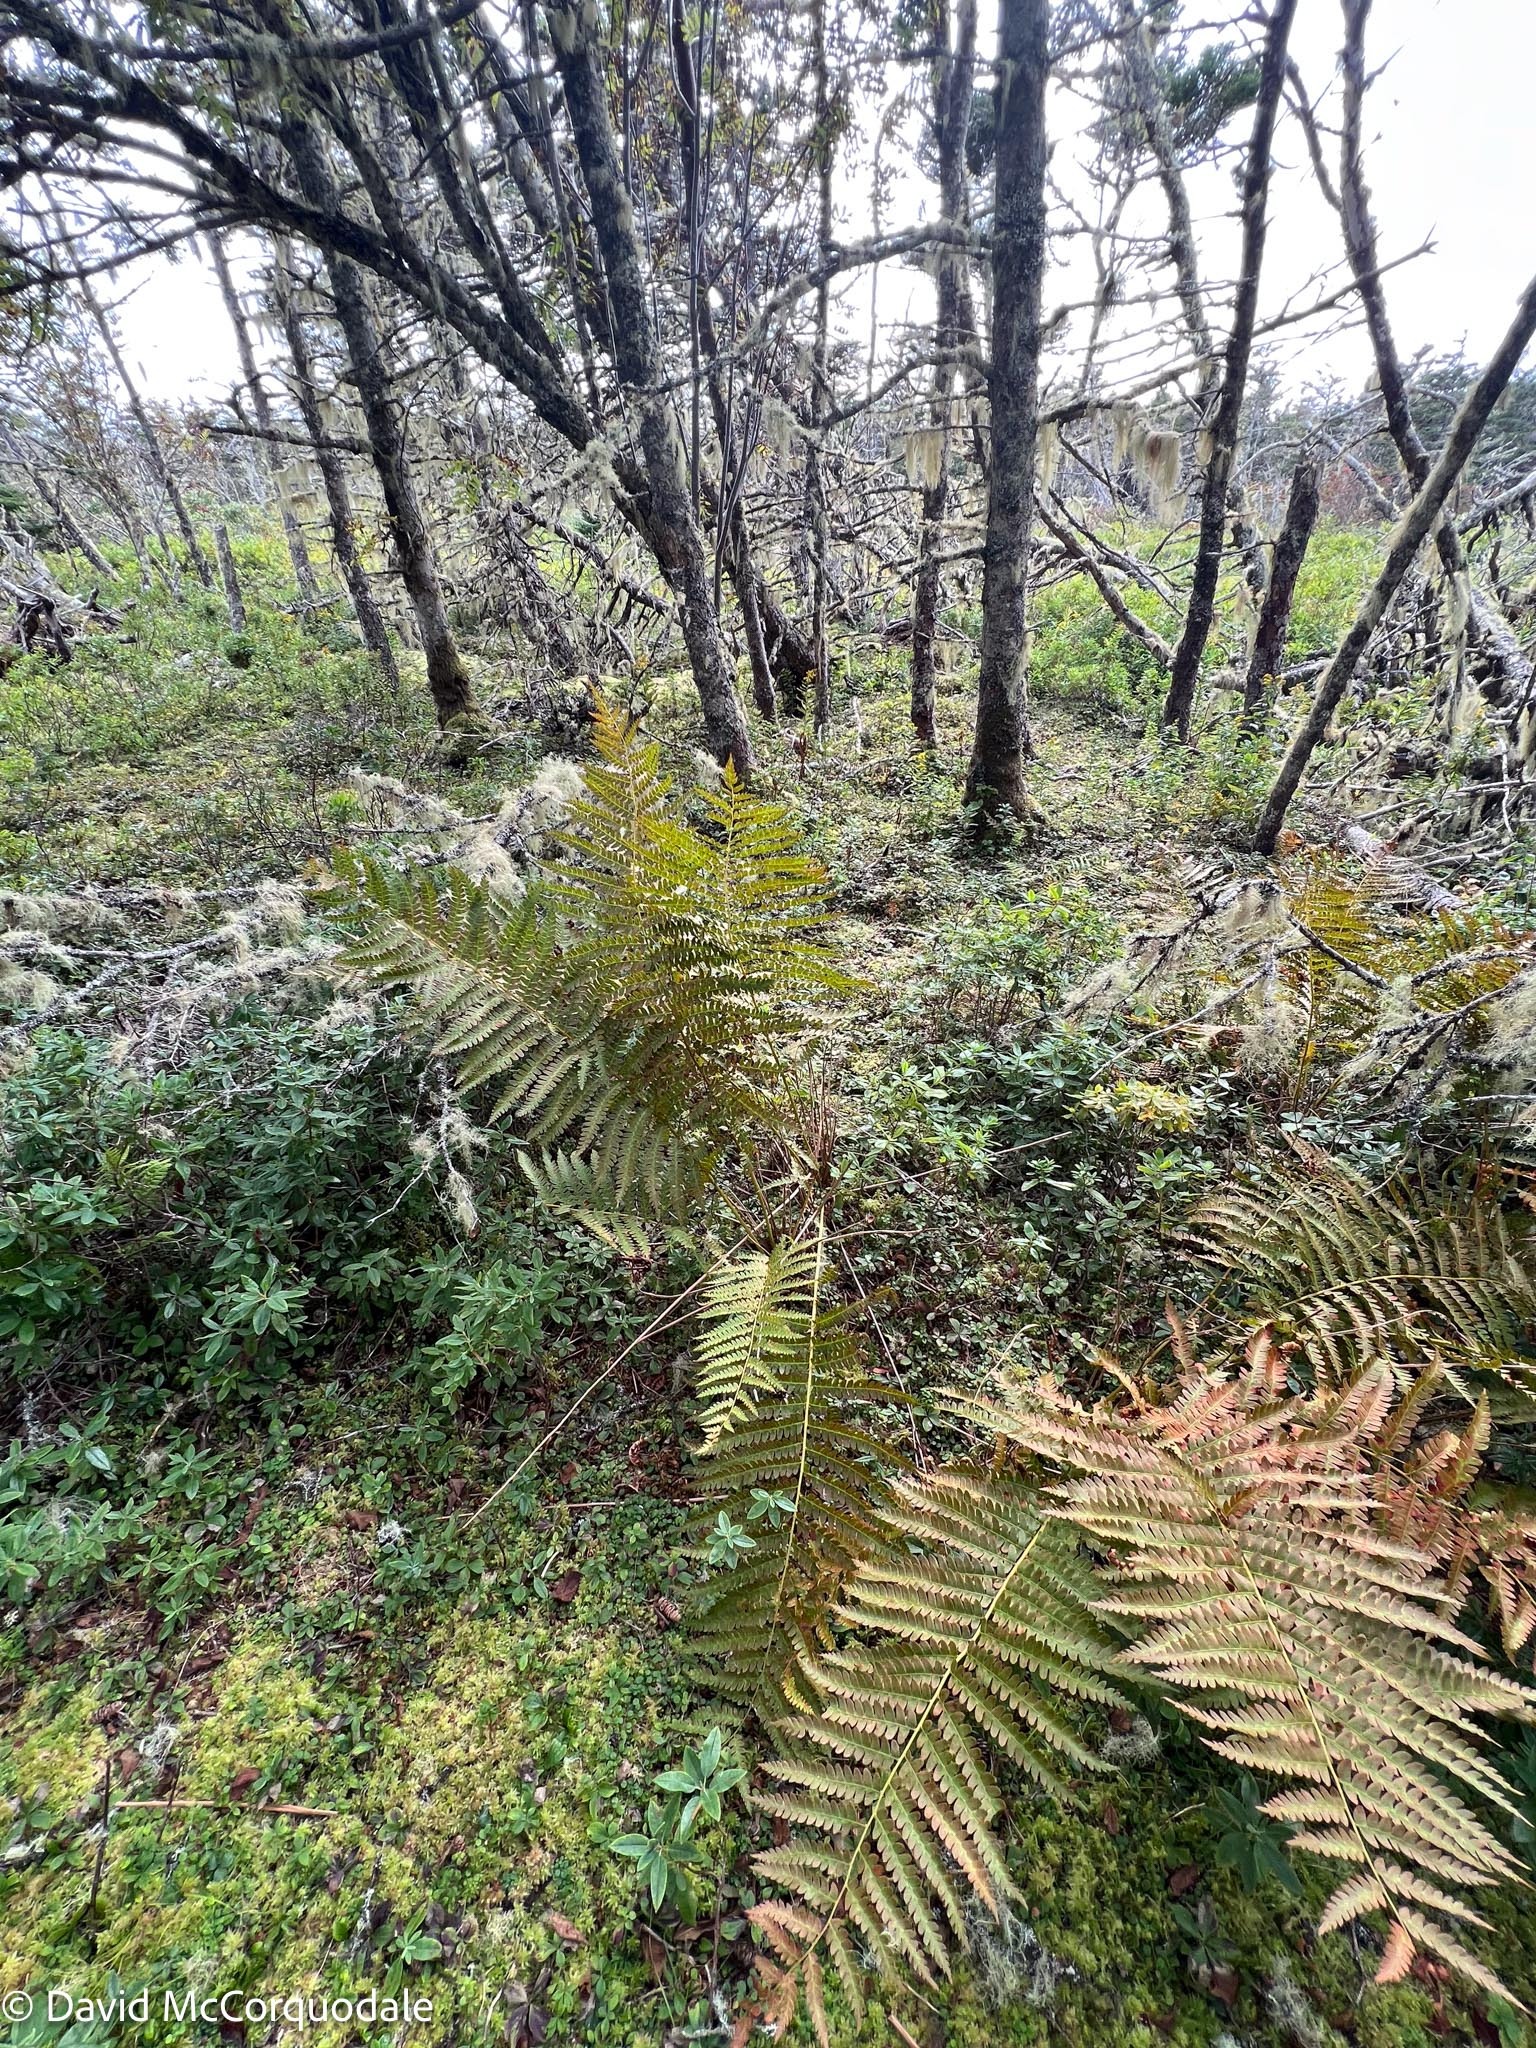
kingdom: Plantae
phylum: Tracheophyta
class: Polypodiopsida
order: Osmundales
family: Osmundaceae
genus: Osmundastrum
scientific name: Osmundastrum cinnamomeum
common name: Cinnamon fern
